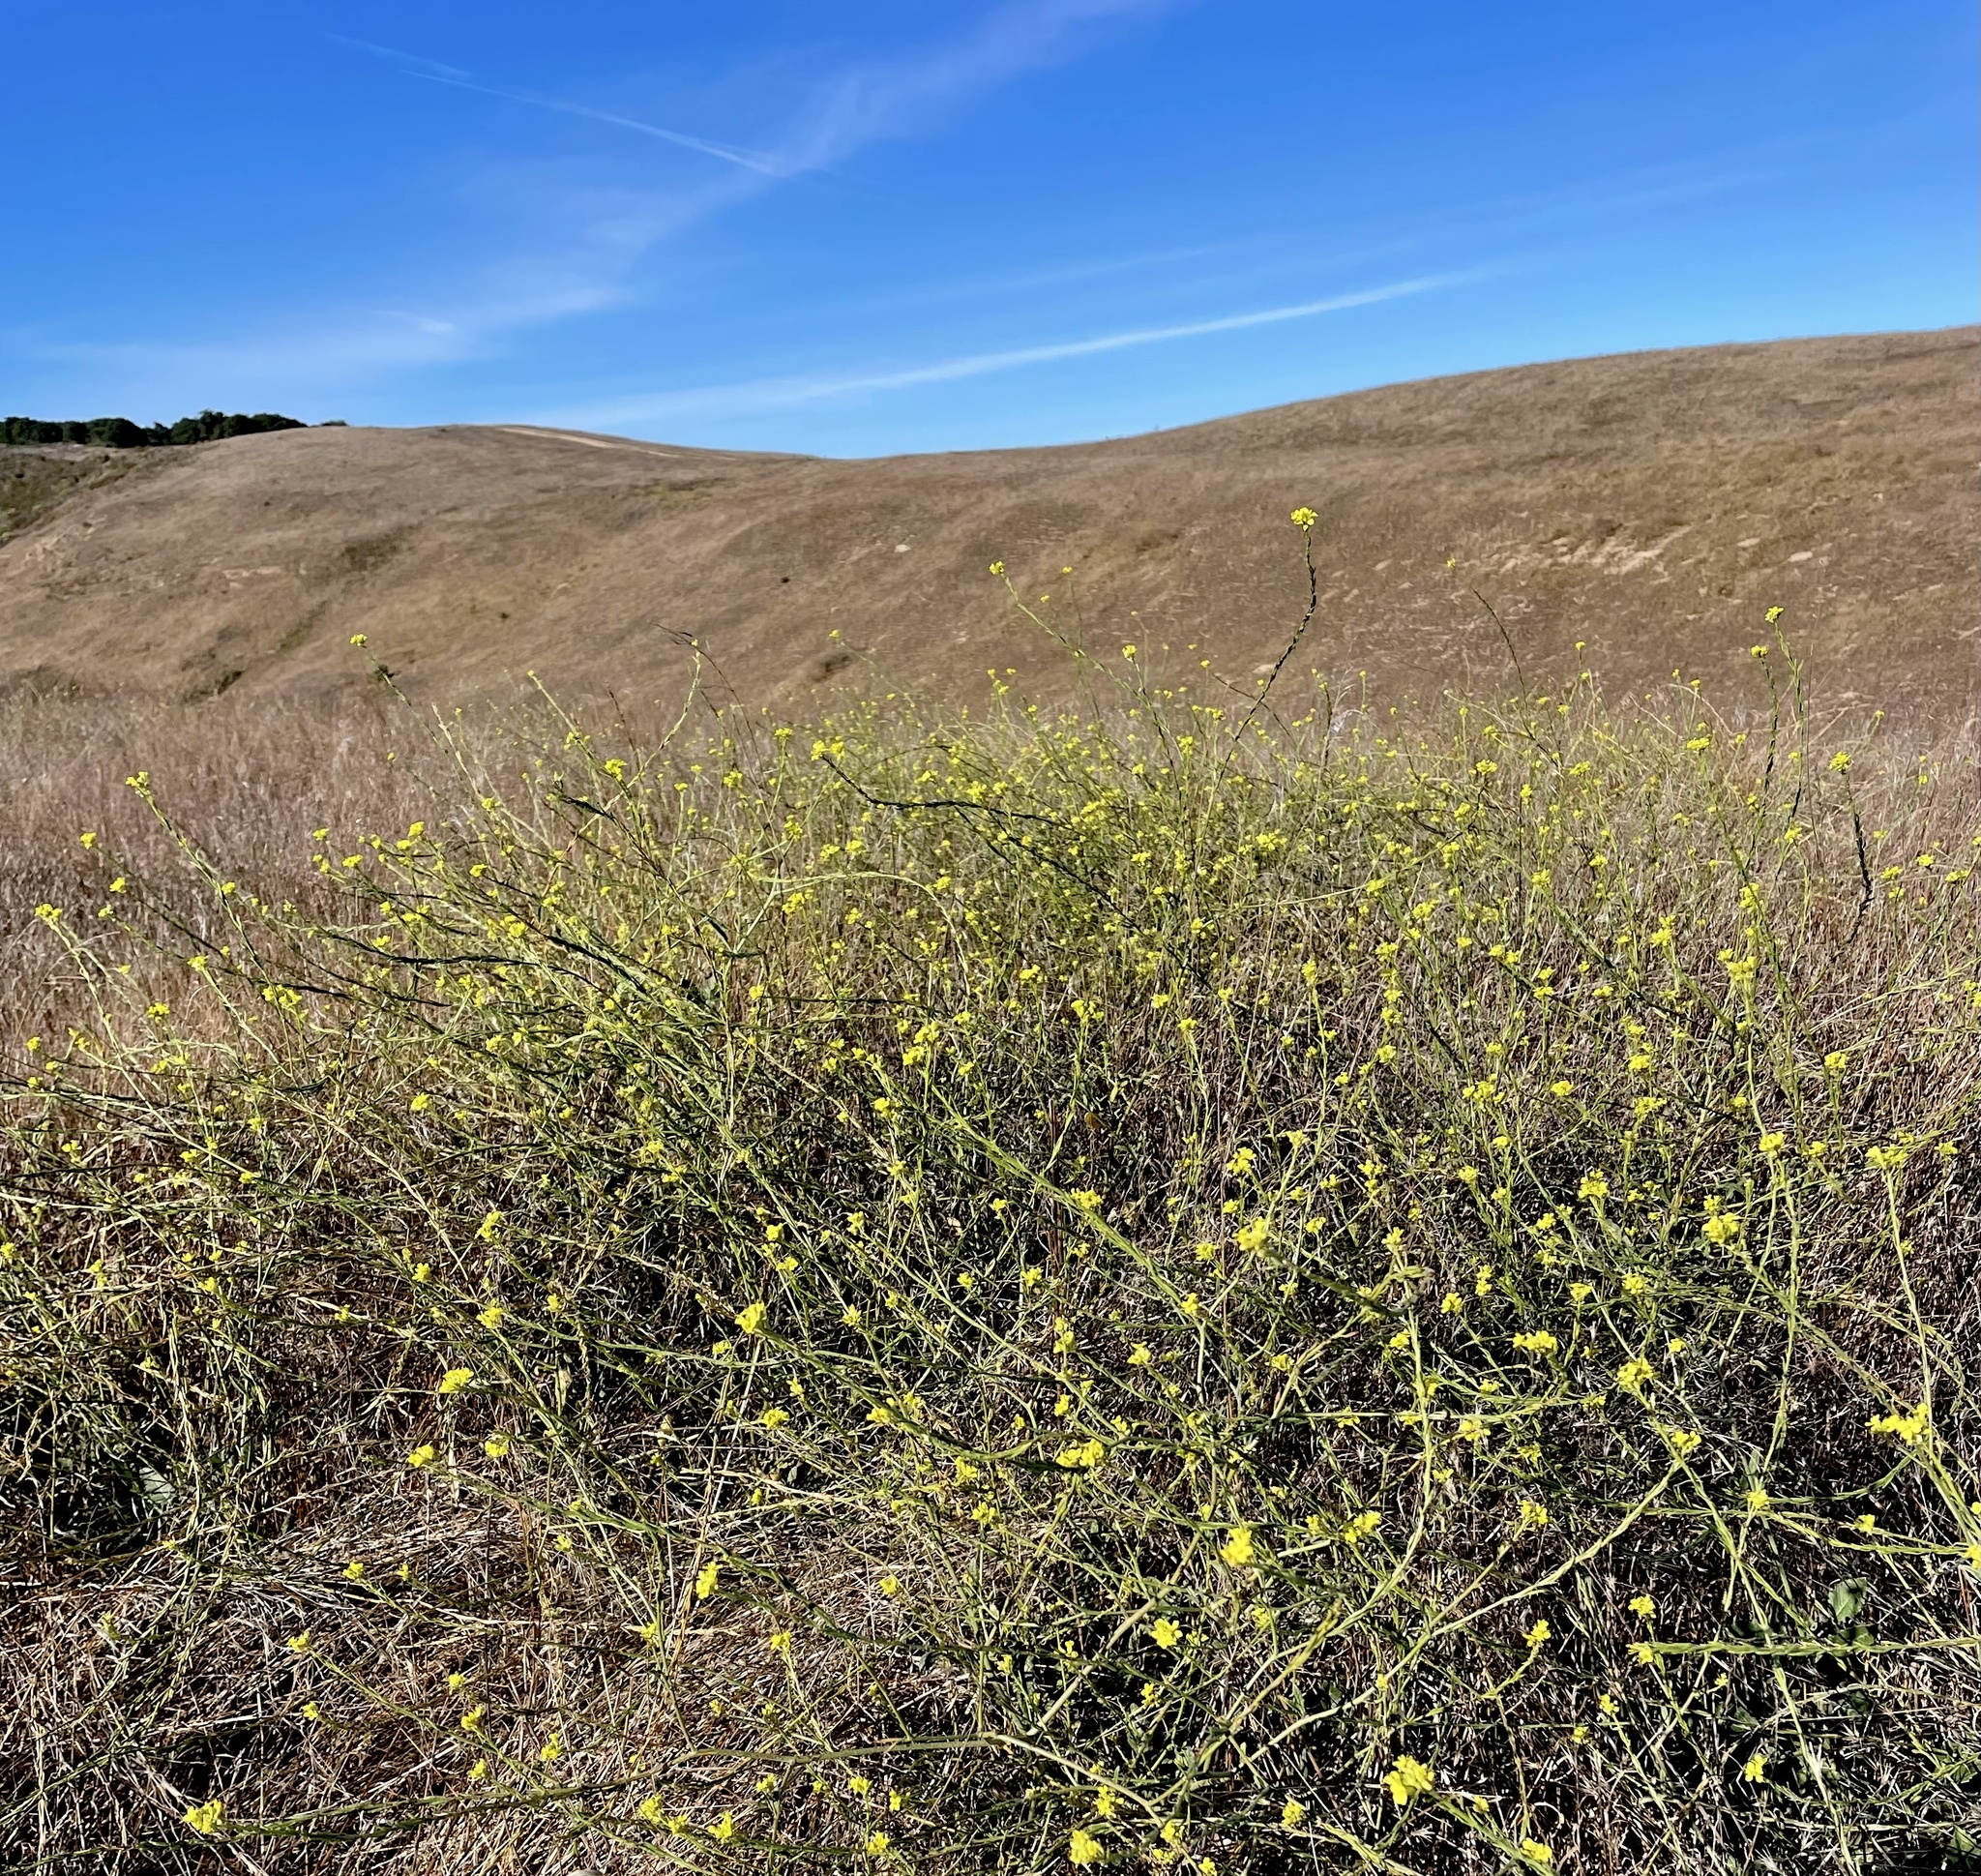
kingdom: Animalia
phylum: Arthropoda
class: Insecta
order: Lepidoptera
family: Nymphalidae
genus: Eresia
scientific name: Eresia aveyrona
